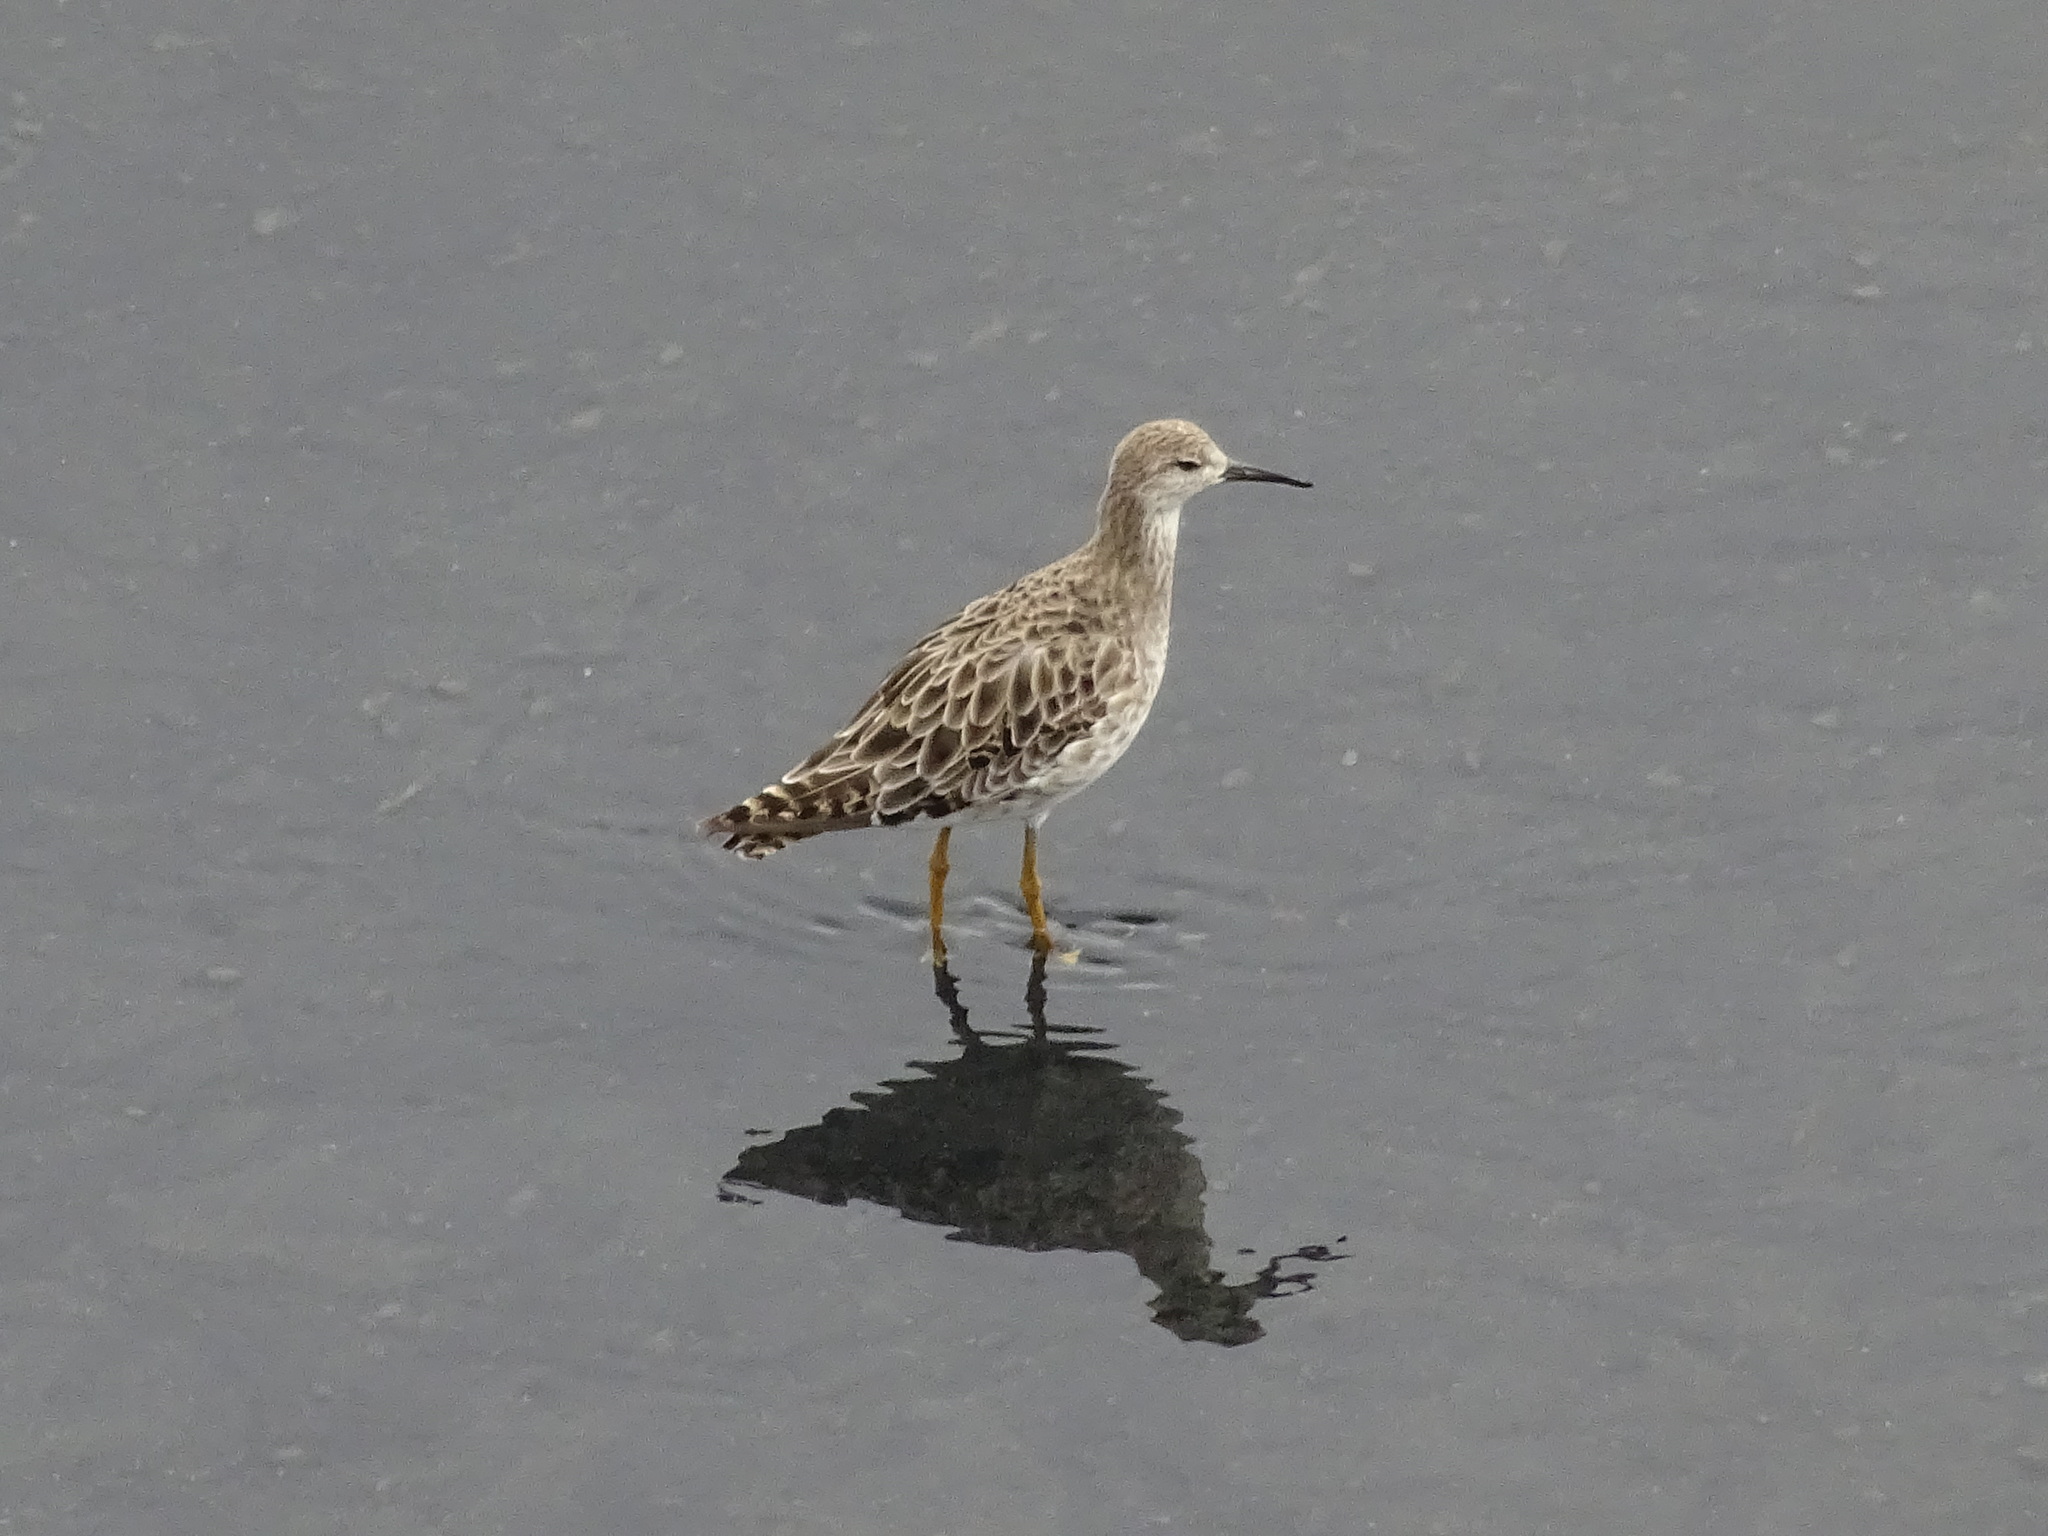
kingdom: Animalia
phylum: Chordata
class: Aves
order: Charadriiformes
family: Scolopacidae
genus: Calidris
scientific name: Calidris pugnax
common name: Ruff
